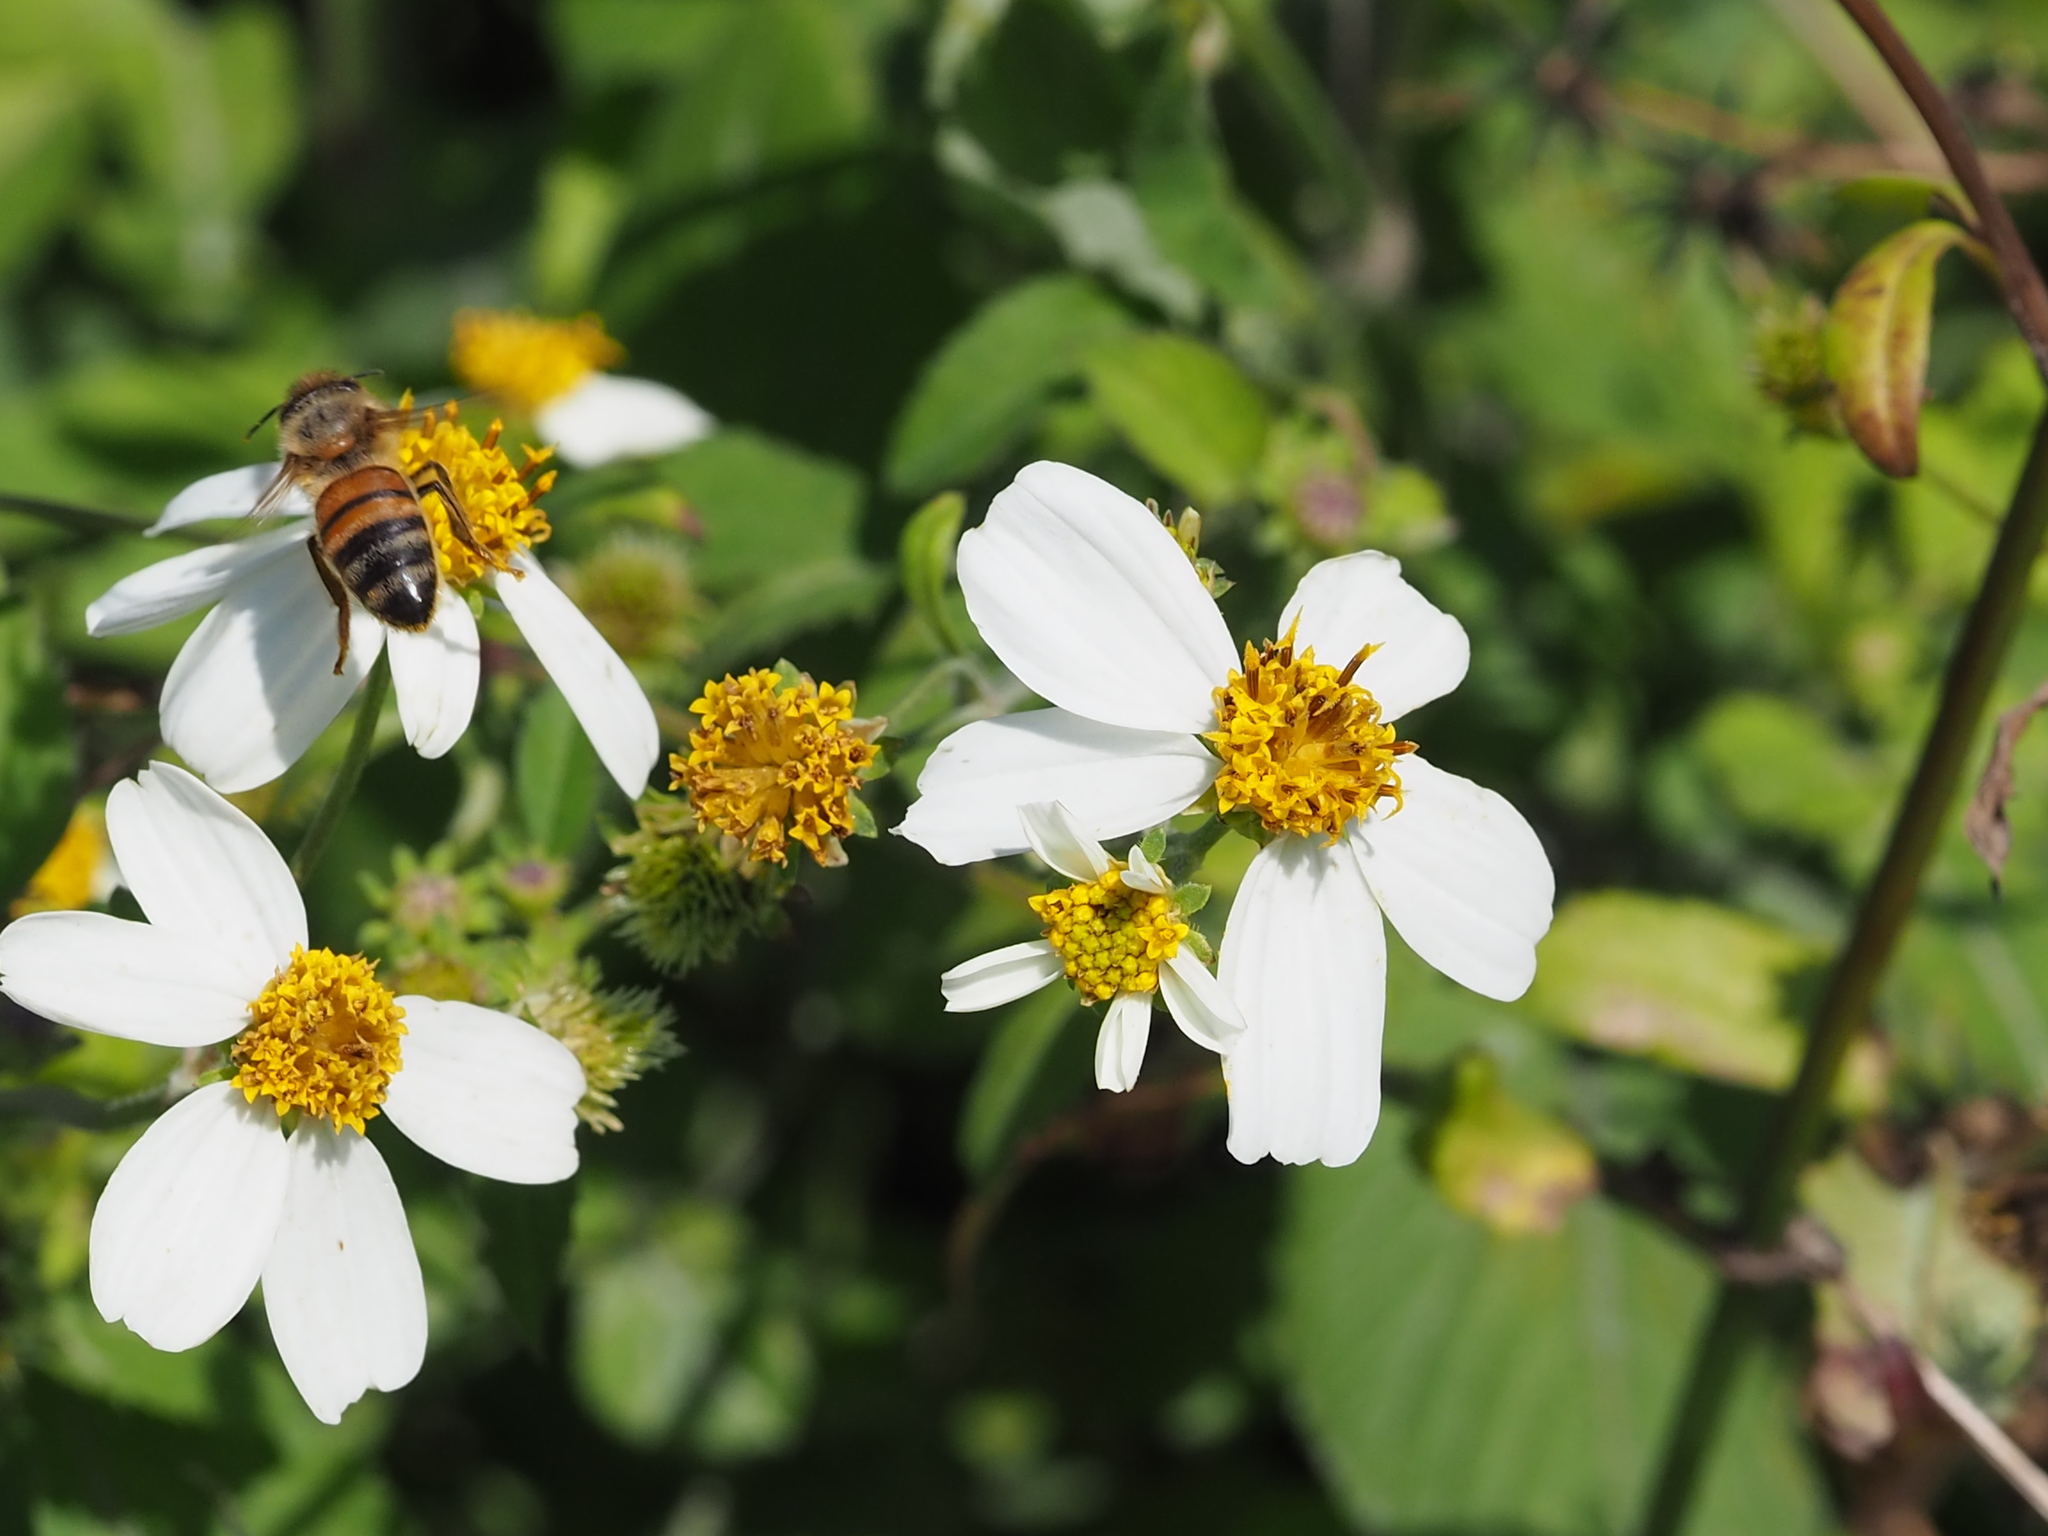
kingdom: Plantae
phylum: Tracheophyta
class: Magnoliopsida
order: Asterales
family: Asteraceae
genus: Bidens
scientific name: Bidens alba
